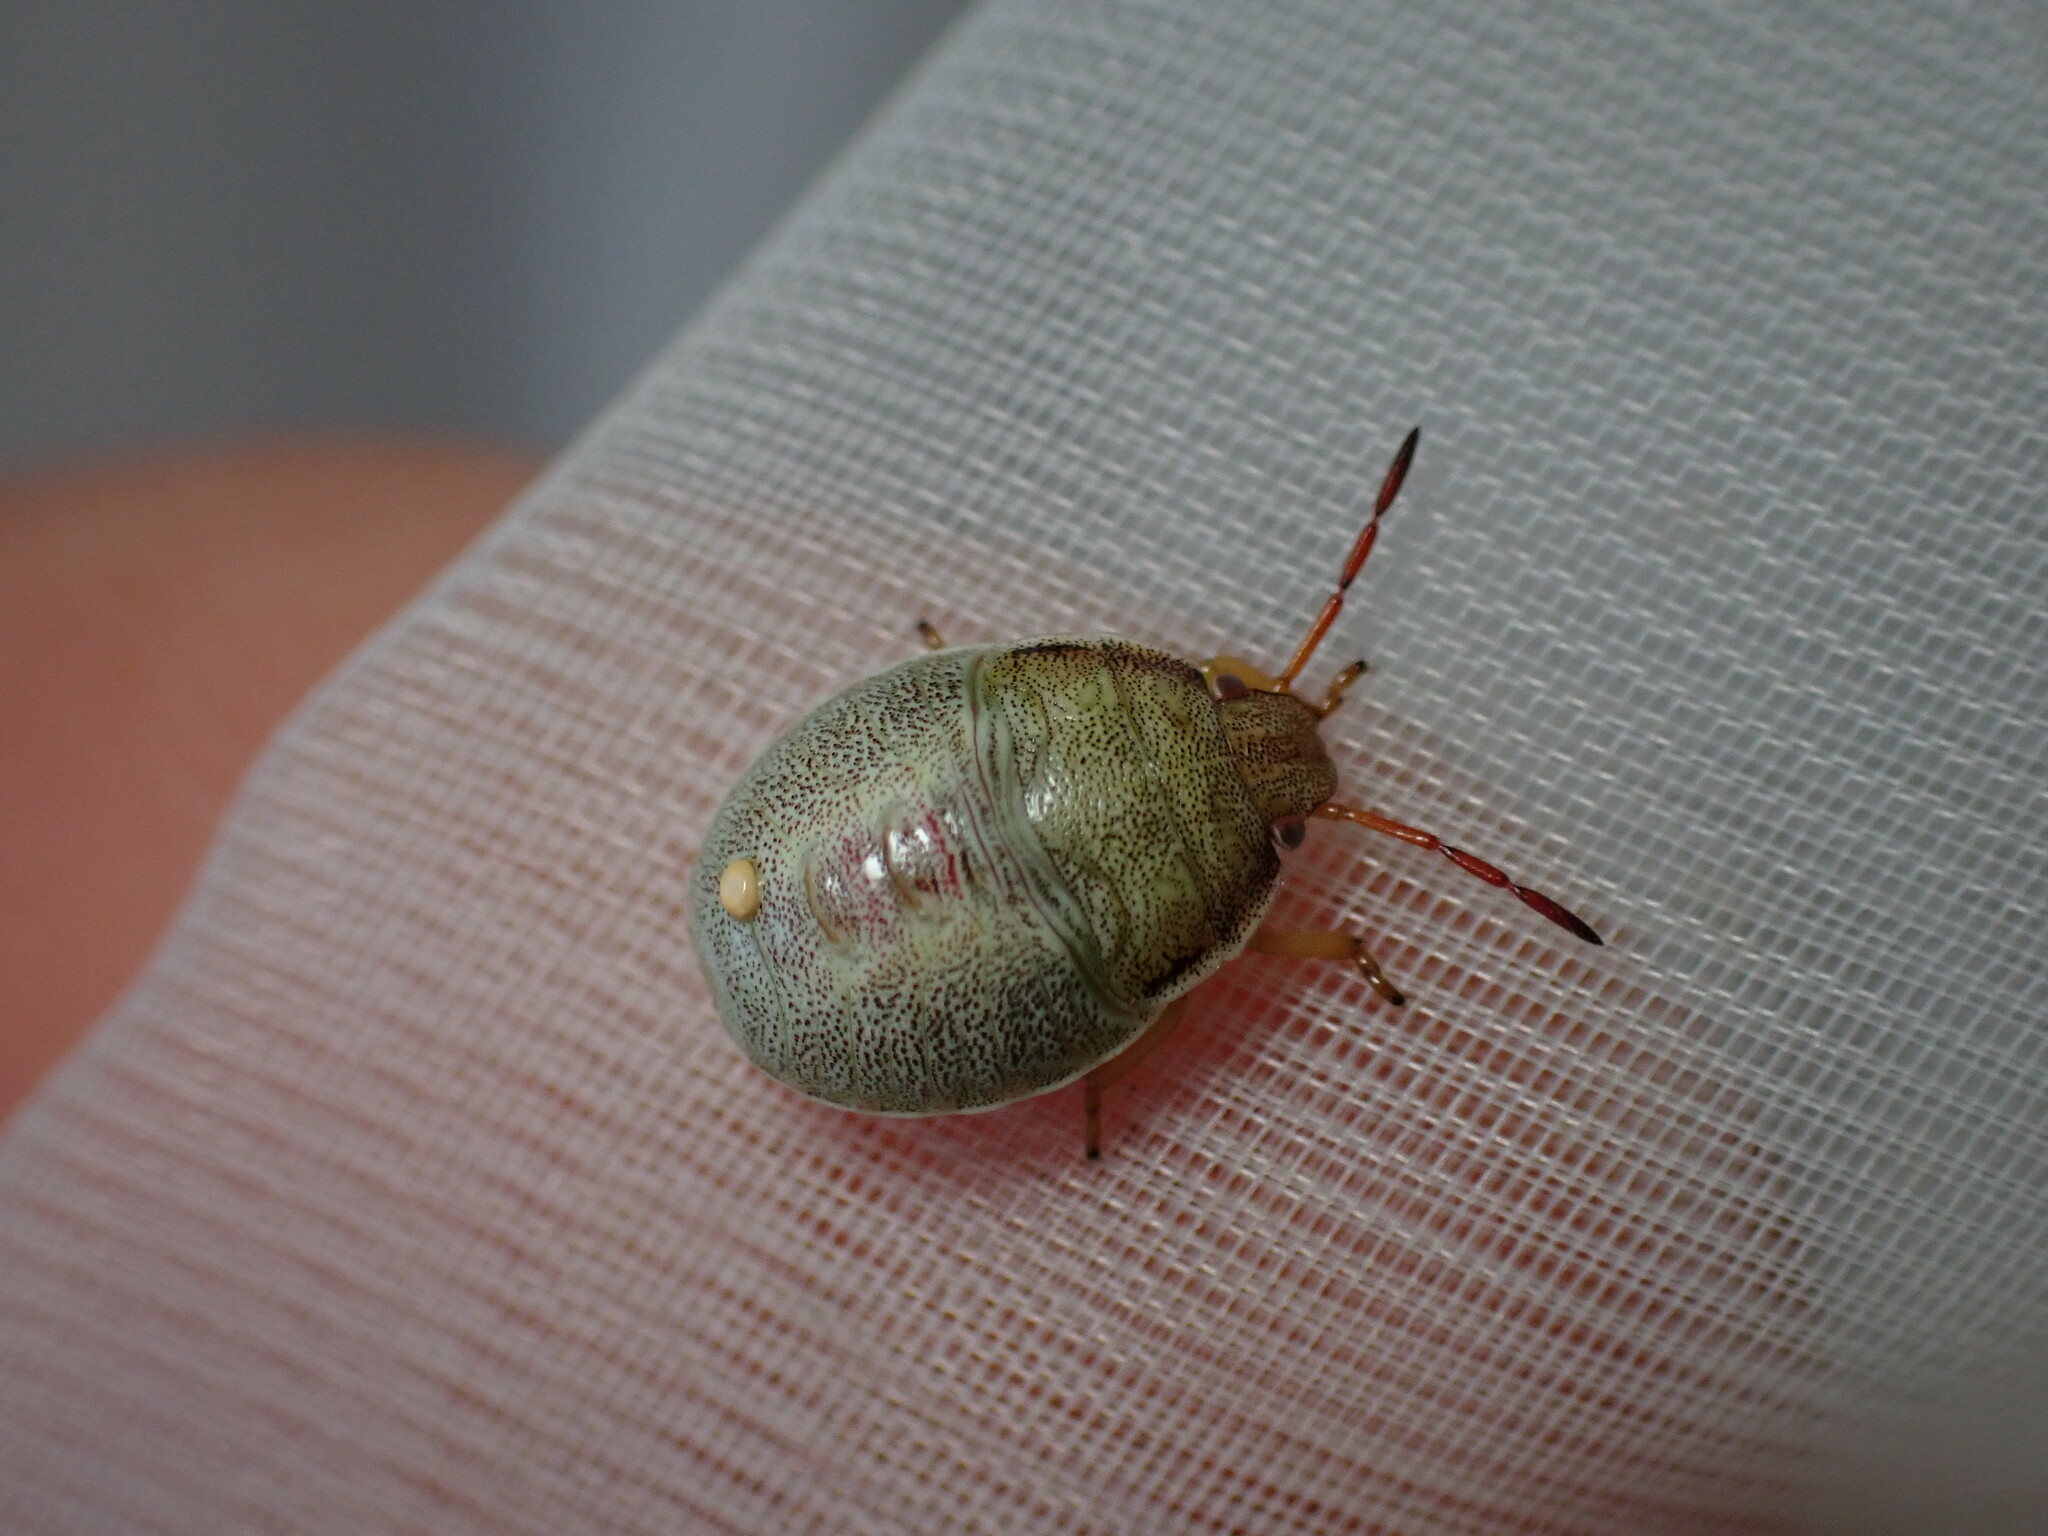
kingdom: Animalia
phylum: Arthropoda
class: Insecta
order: Hemiptera
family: Pentatomidae
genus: Piezodorus
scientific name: Piezodorus lituratus
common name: Stink bug
